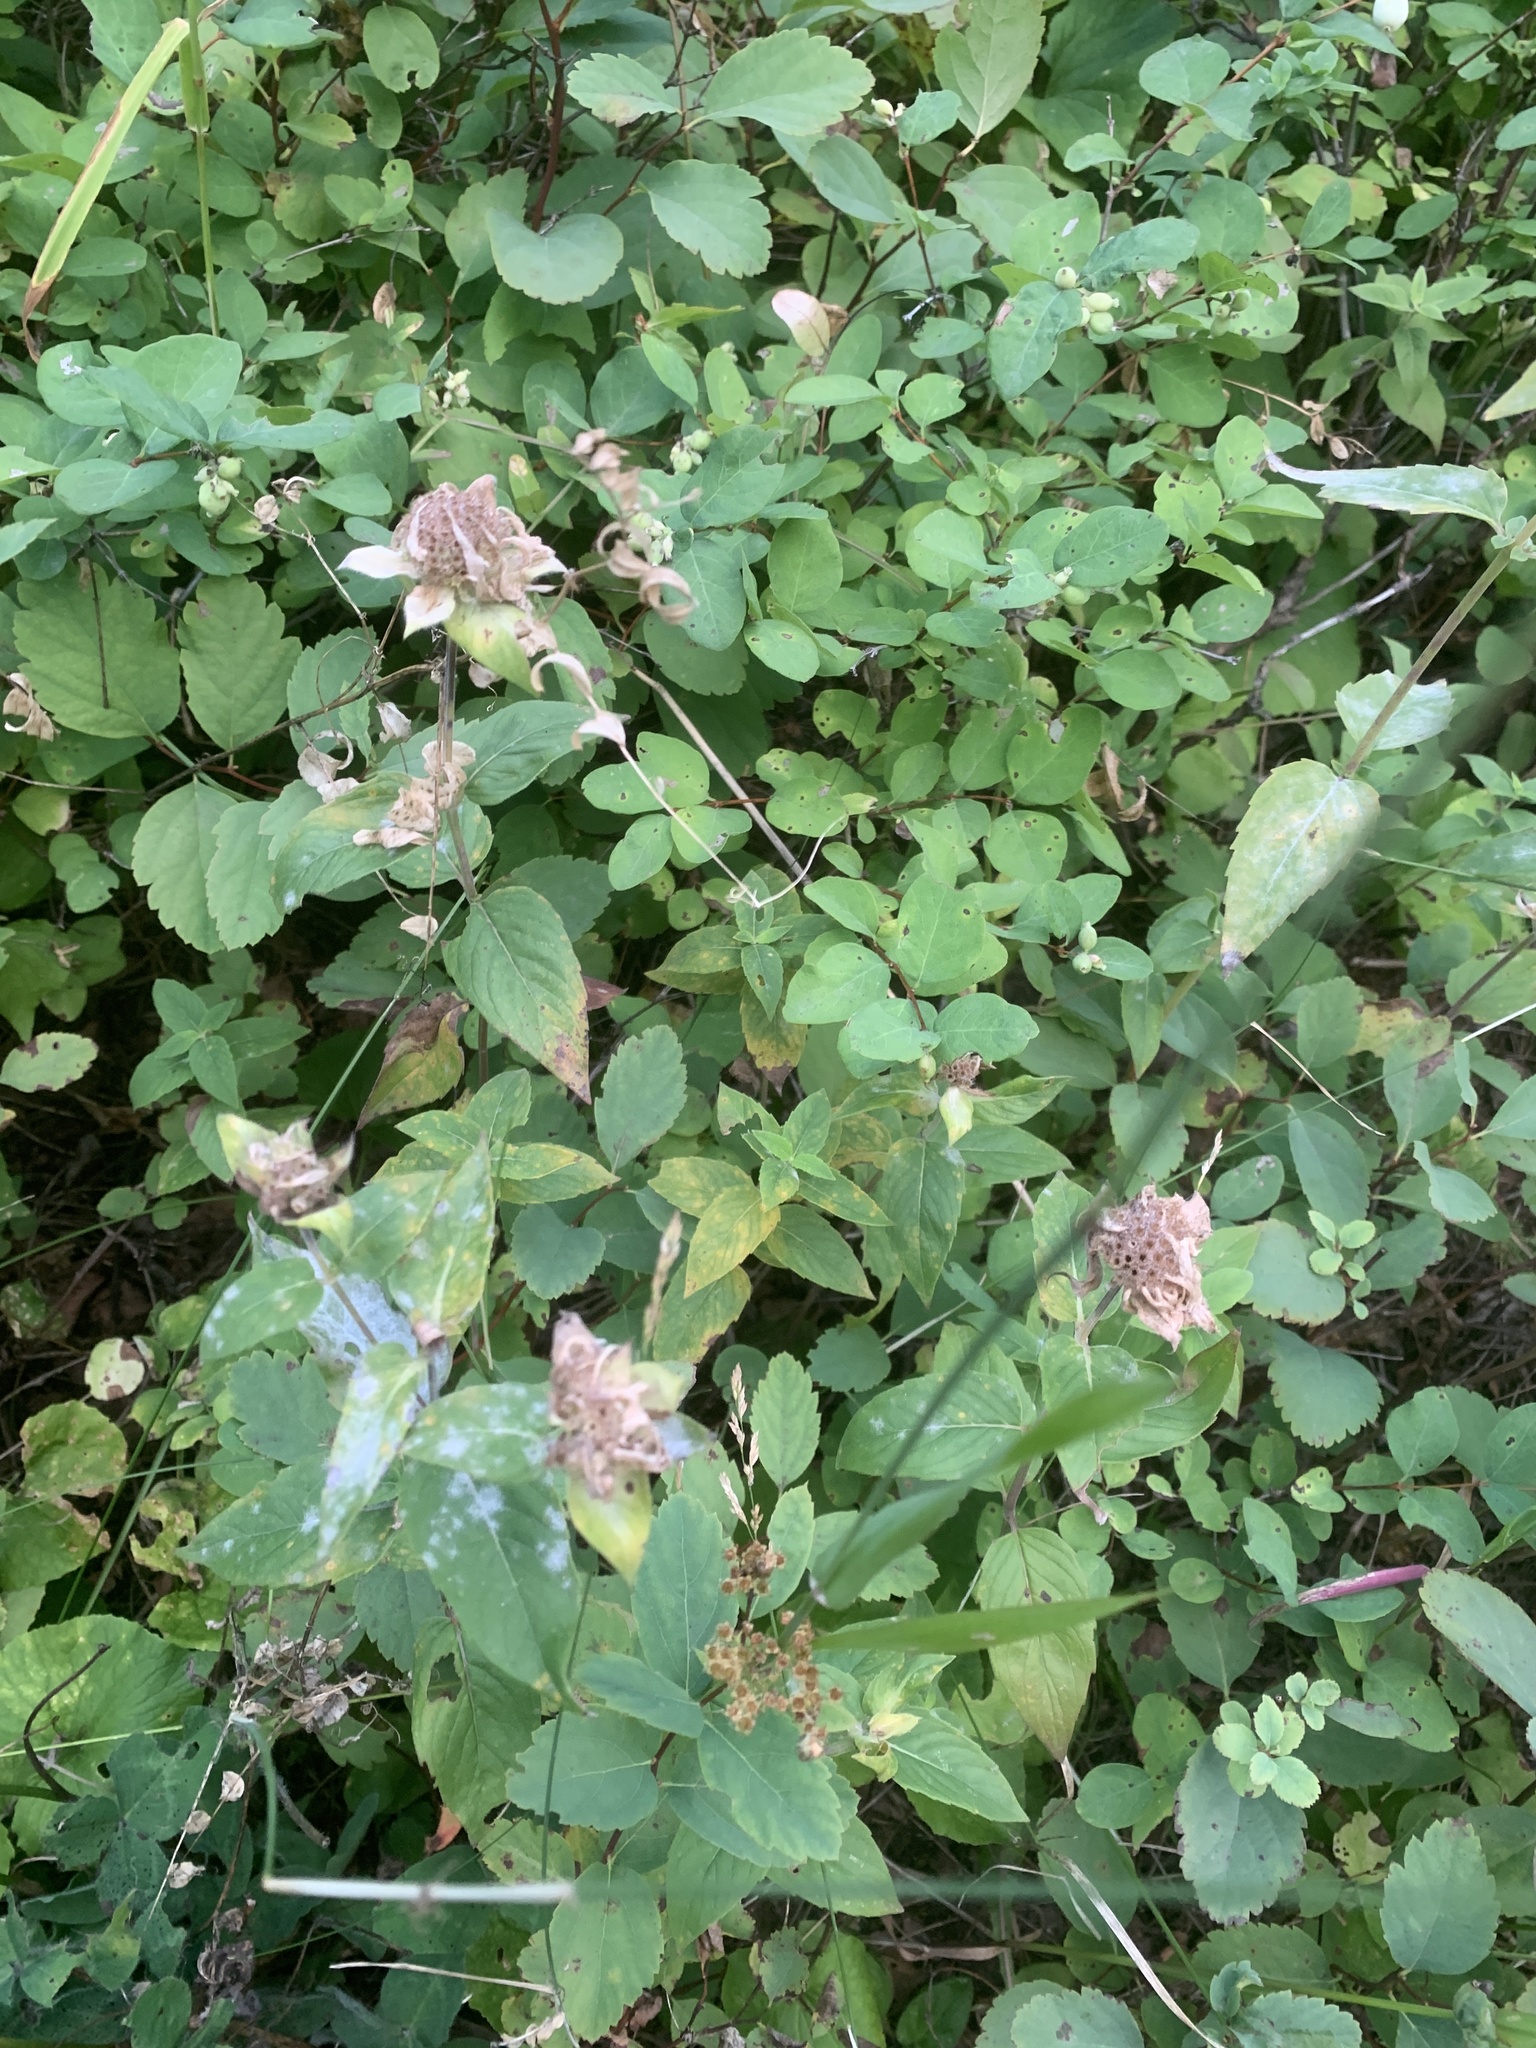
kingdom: Plantae
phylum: Tracheophyta
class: Magnoliopsida
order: Lamiales
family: Lamiaceae
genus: Monarda
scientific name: Monarda fistulosa
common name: Purple beebalm
